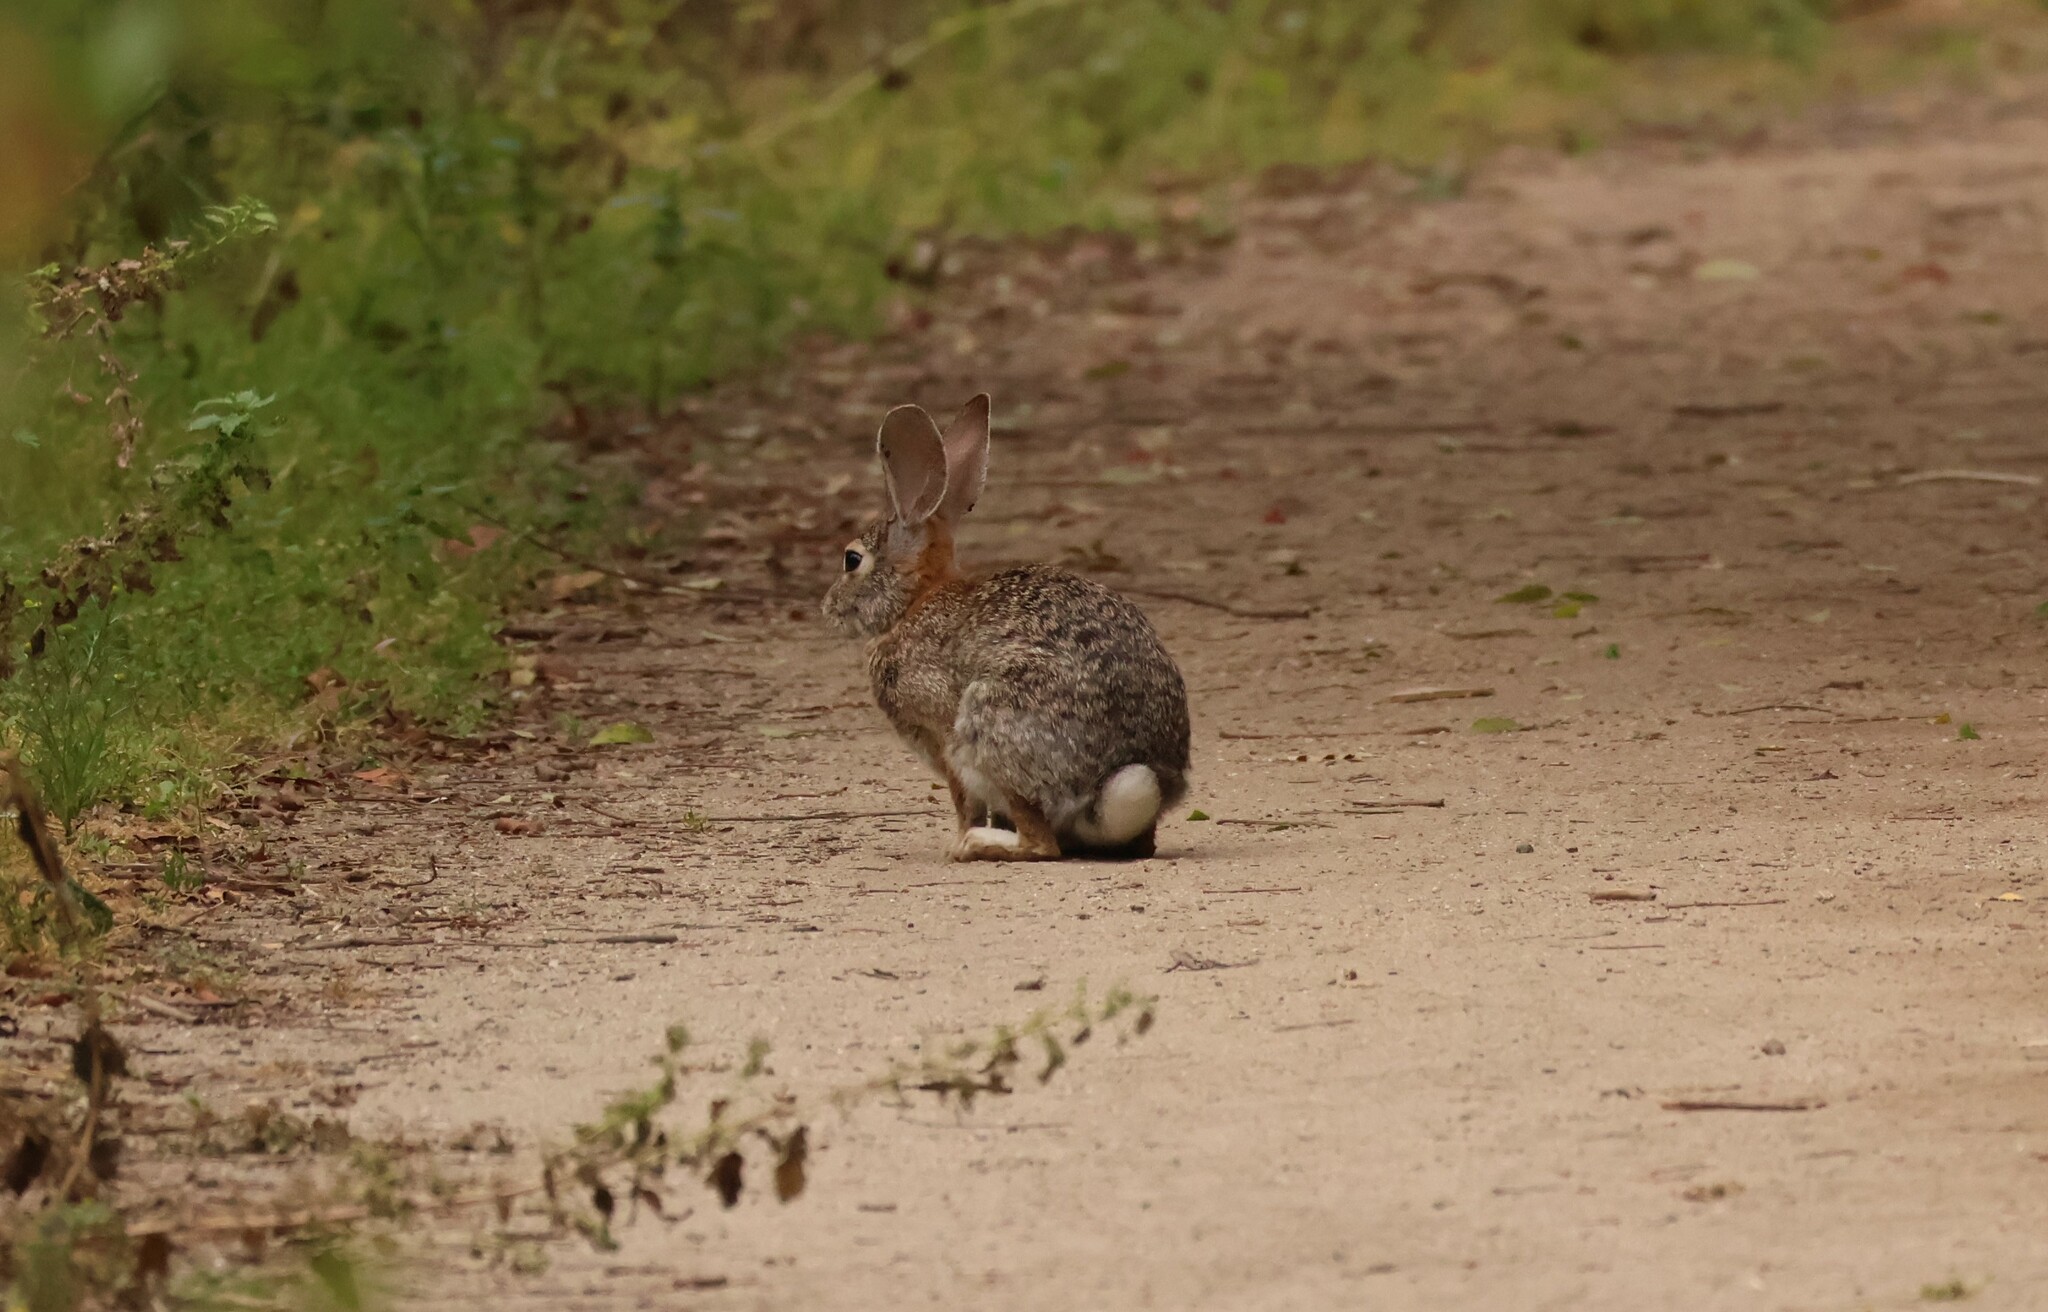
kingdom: Animalia
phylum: Chordata
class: Mammalia
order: Lagomorpha
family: Leporidae
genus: Sylvilagus
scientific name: Sylvilagus audubonii
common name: Desert cottontail
